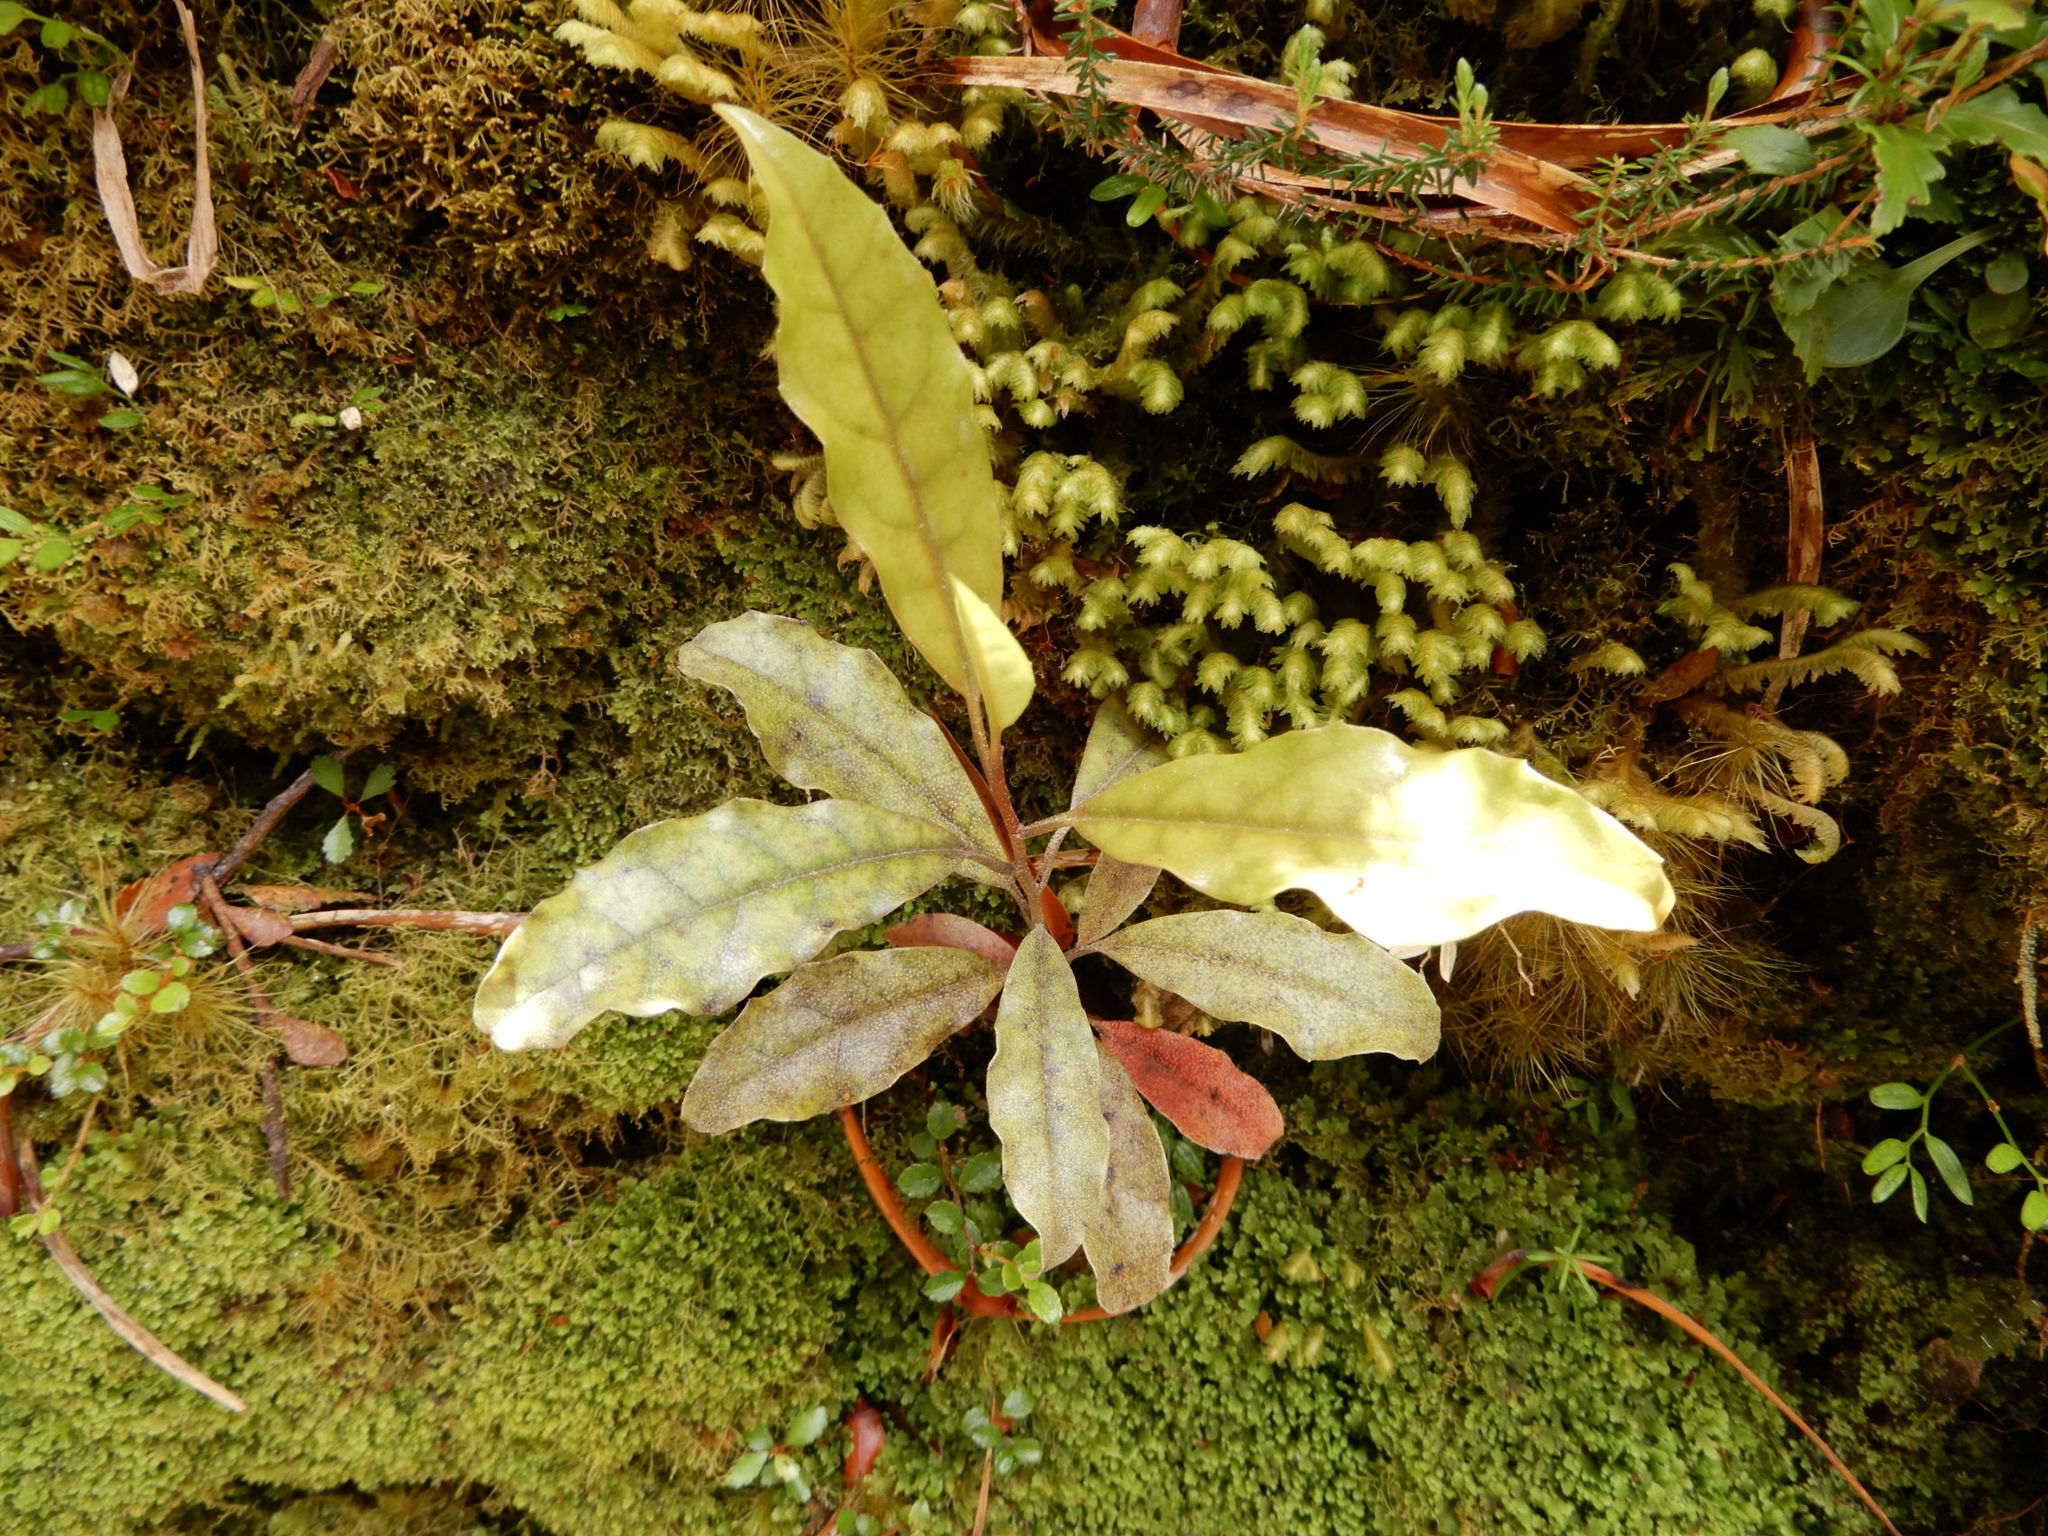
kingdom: Plantae
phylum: Tracheophyta
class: Magnoliopsida
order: Paracryphiales
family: Paracryphiaceae
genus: Quintinia
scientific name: Quintinia serrata
